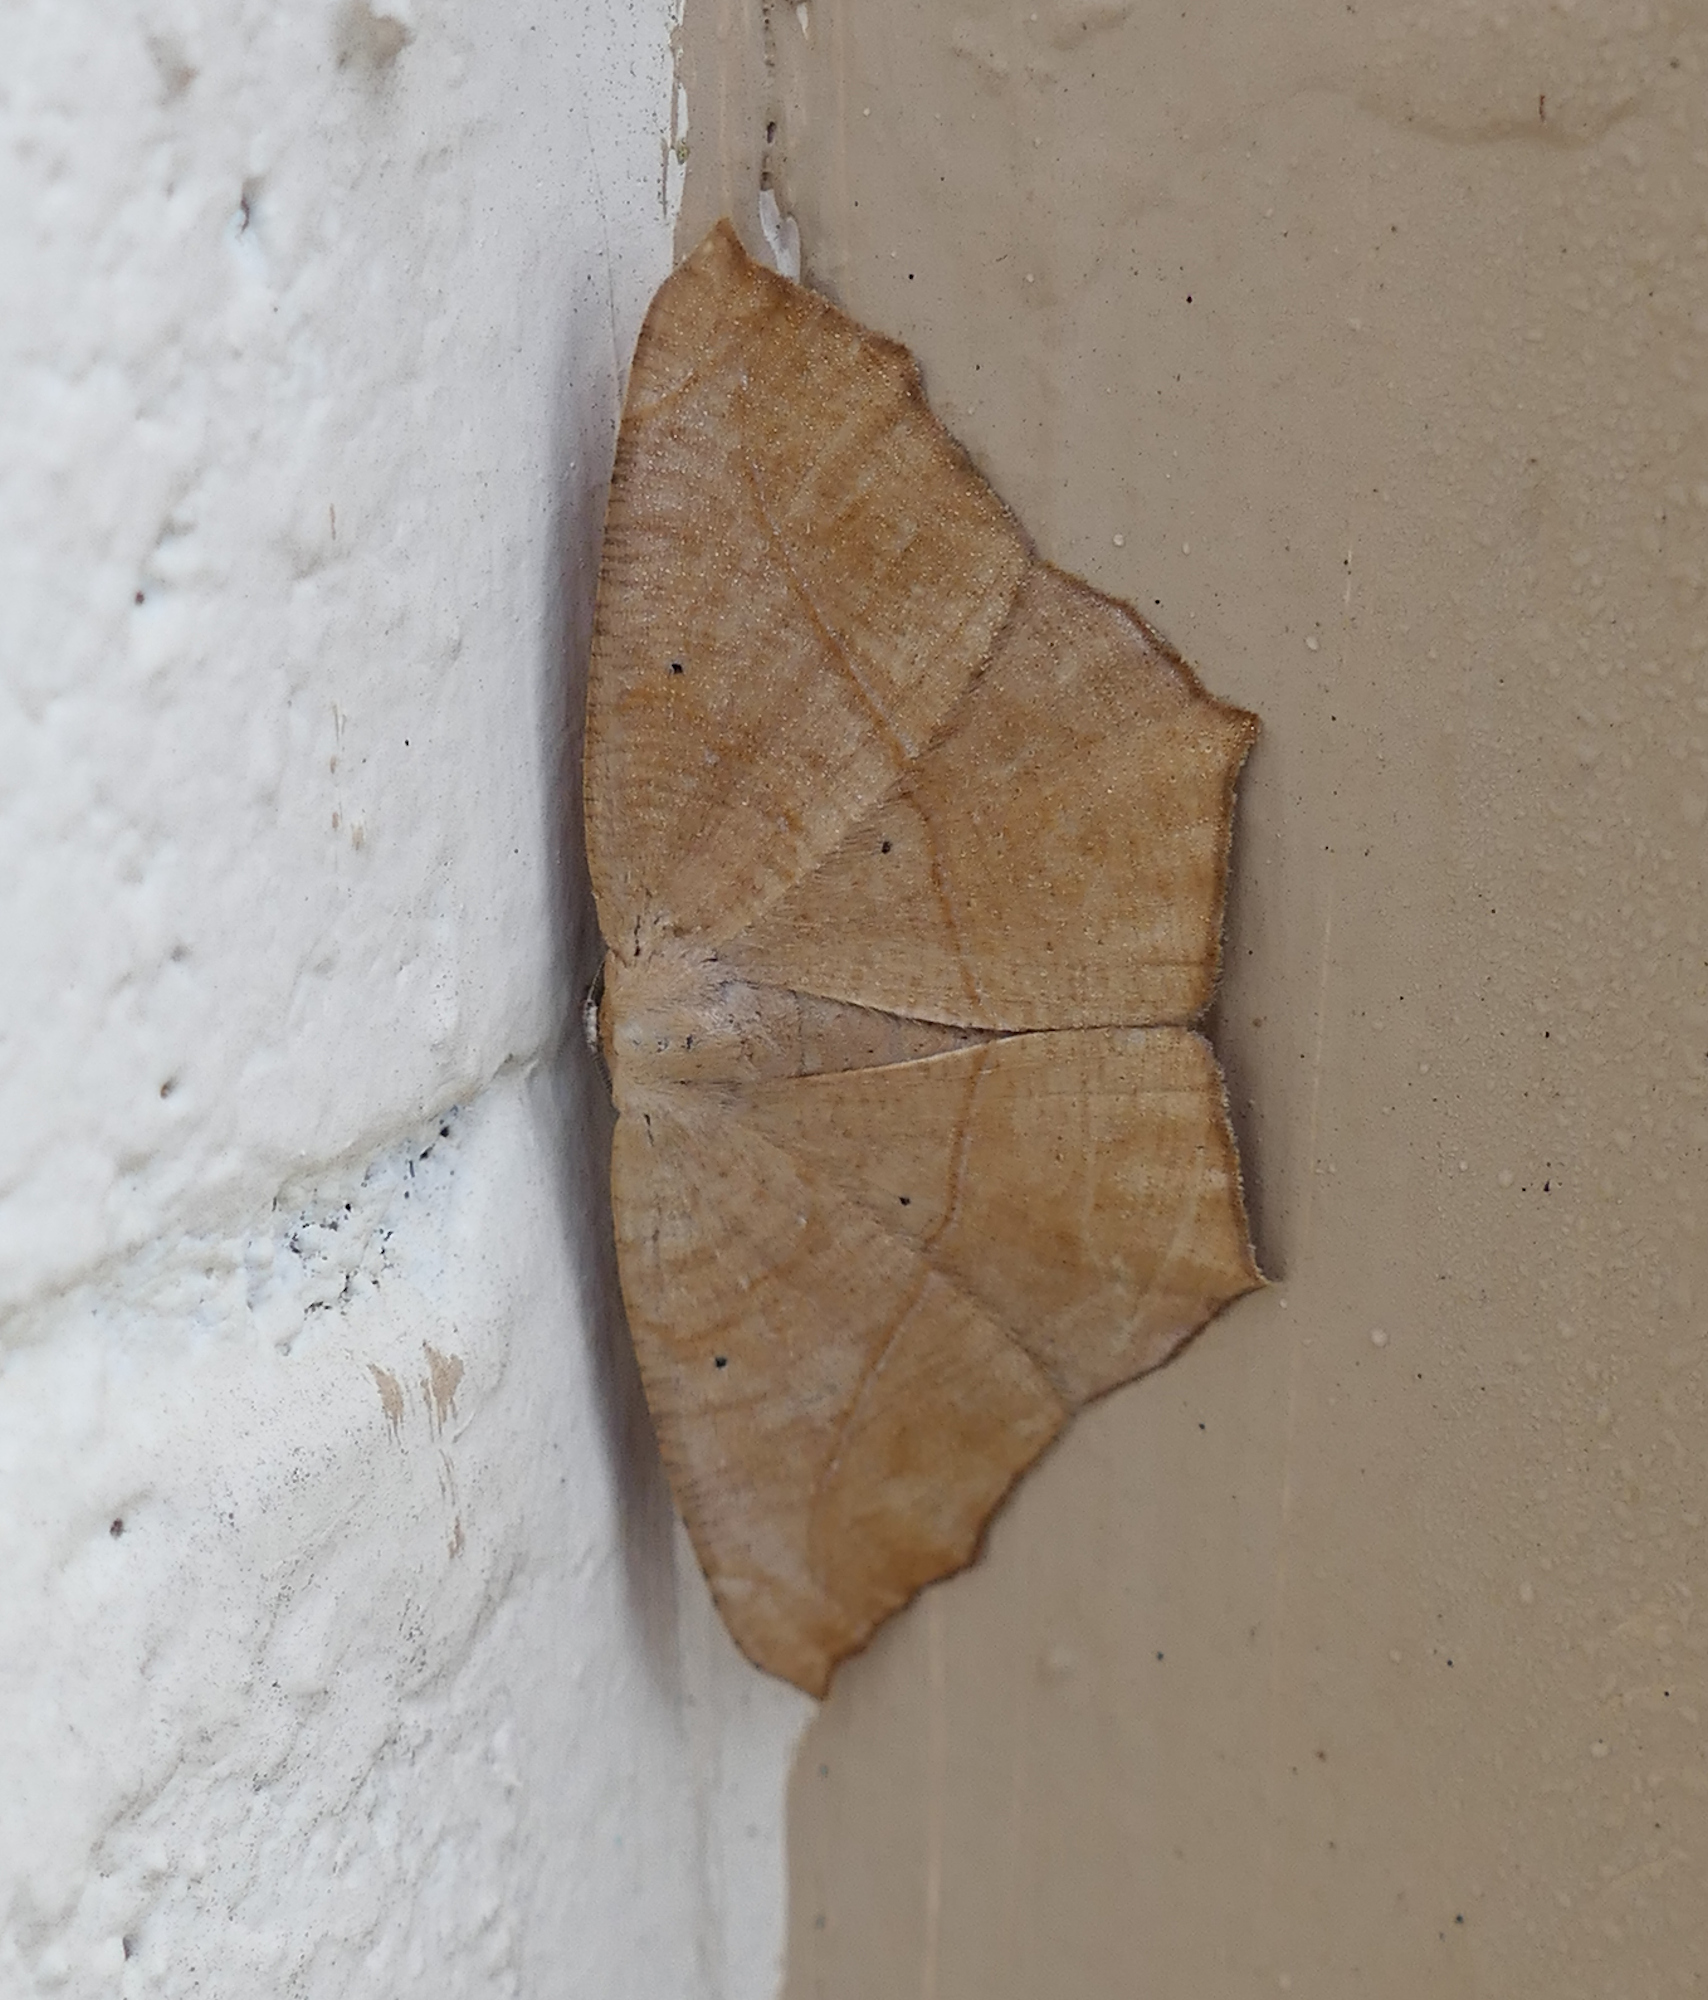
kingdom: Animalia
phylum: Arthropoda
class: Insecta
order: Lepidoptera
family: Geometridae
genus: Prochoerodes
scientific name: Prochoerodes lineola
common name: Large maple spanworm
